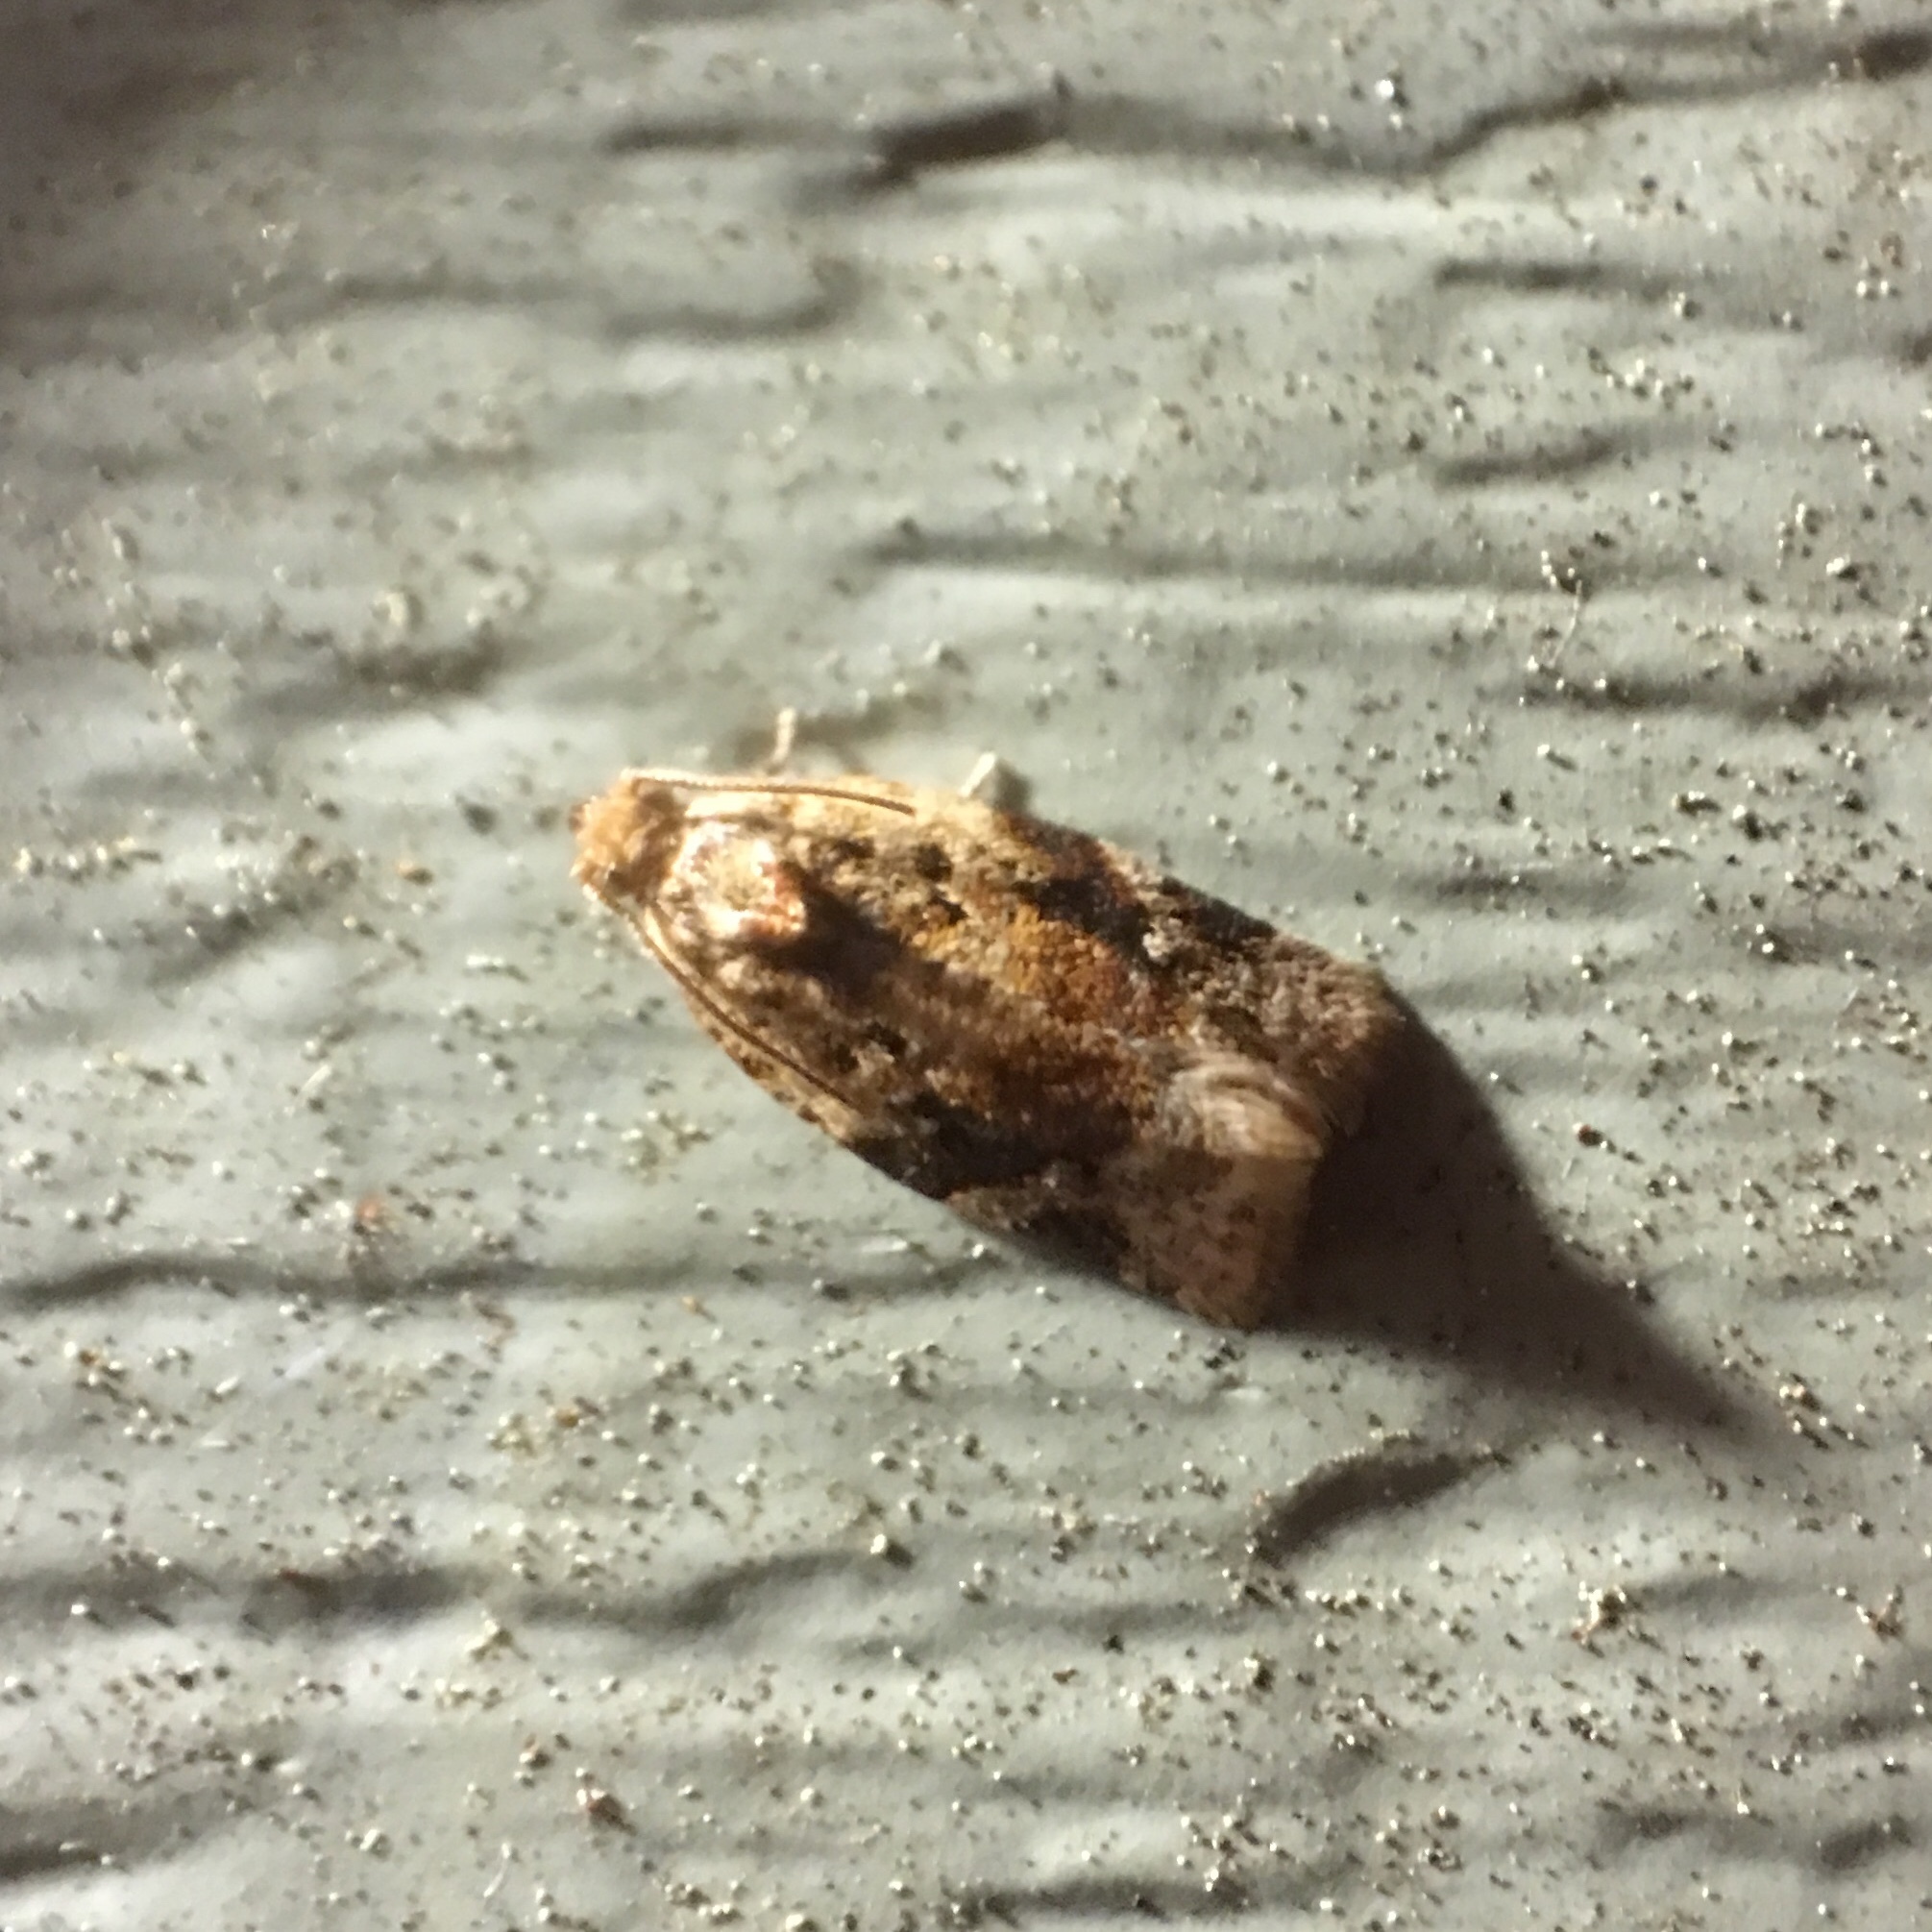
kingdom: Animalia
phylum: Arthropoda
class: Insecta
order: Lepidoptera
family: Tortricidae
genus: Argyrotaenia
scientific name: Argyrotaenia velutinana
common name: Red-banded leafroller moth
